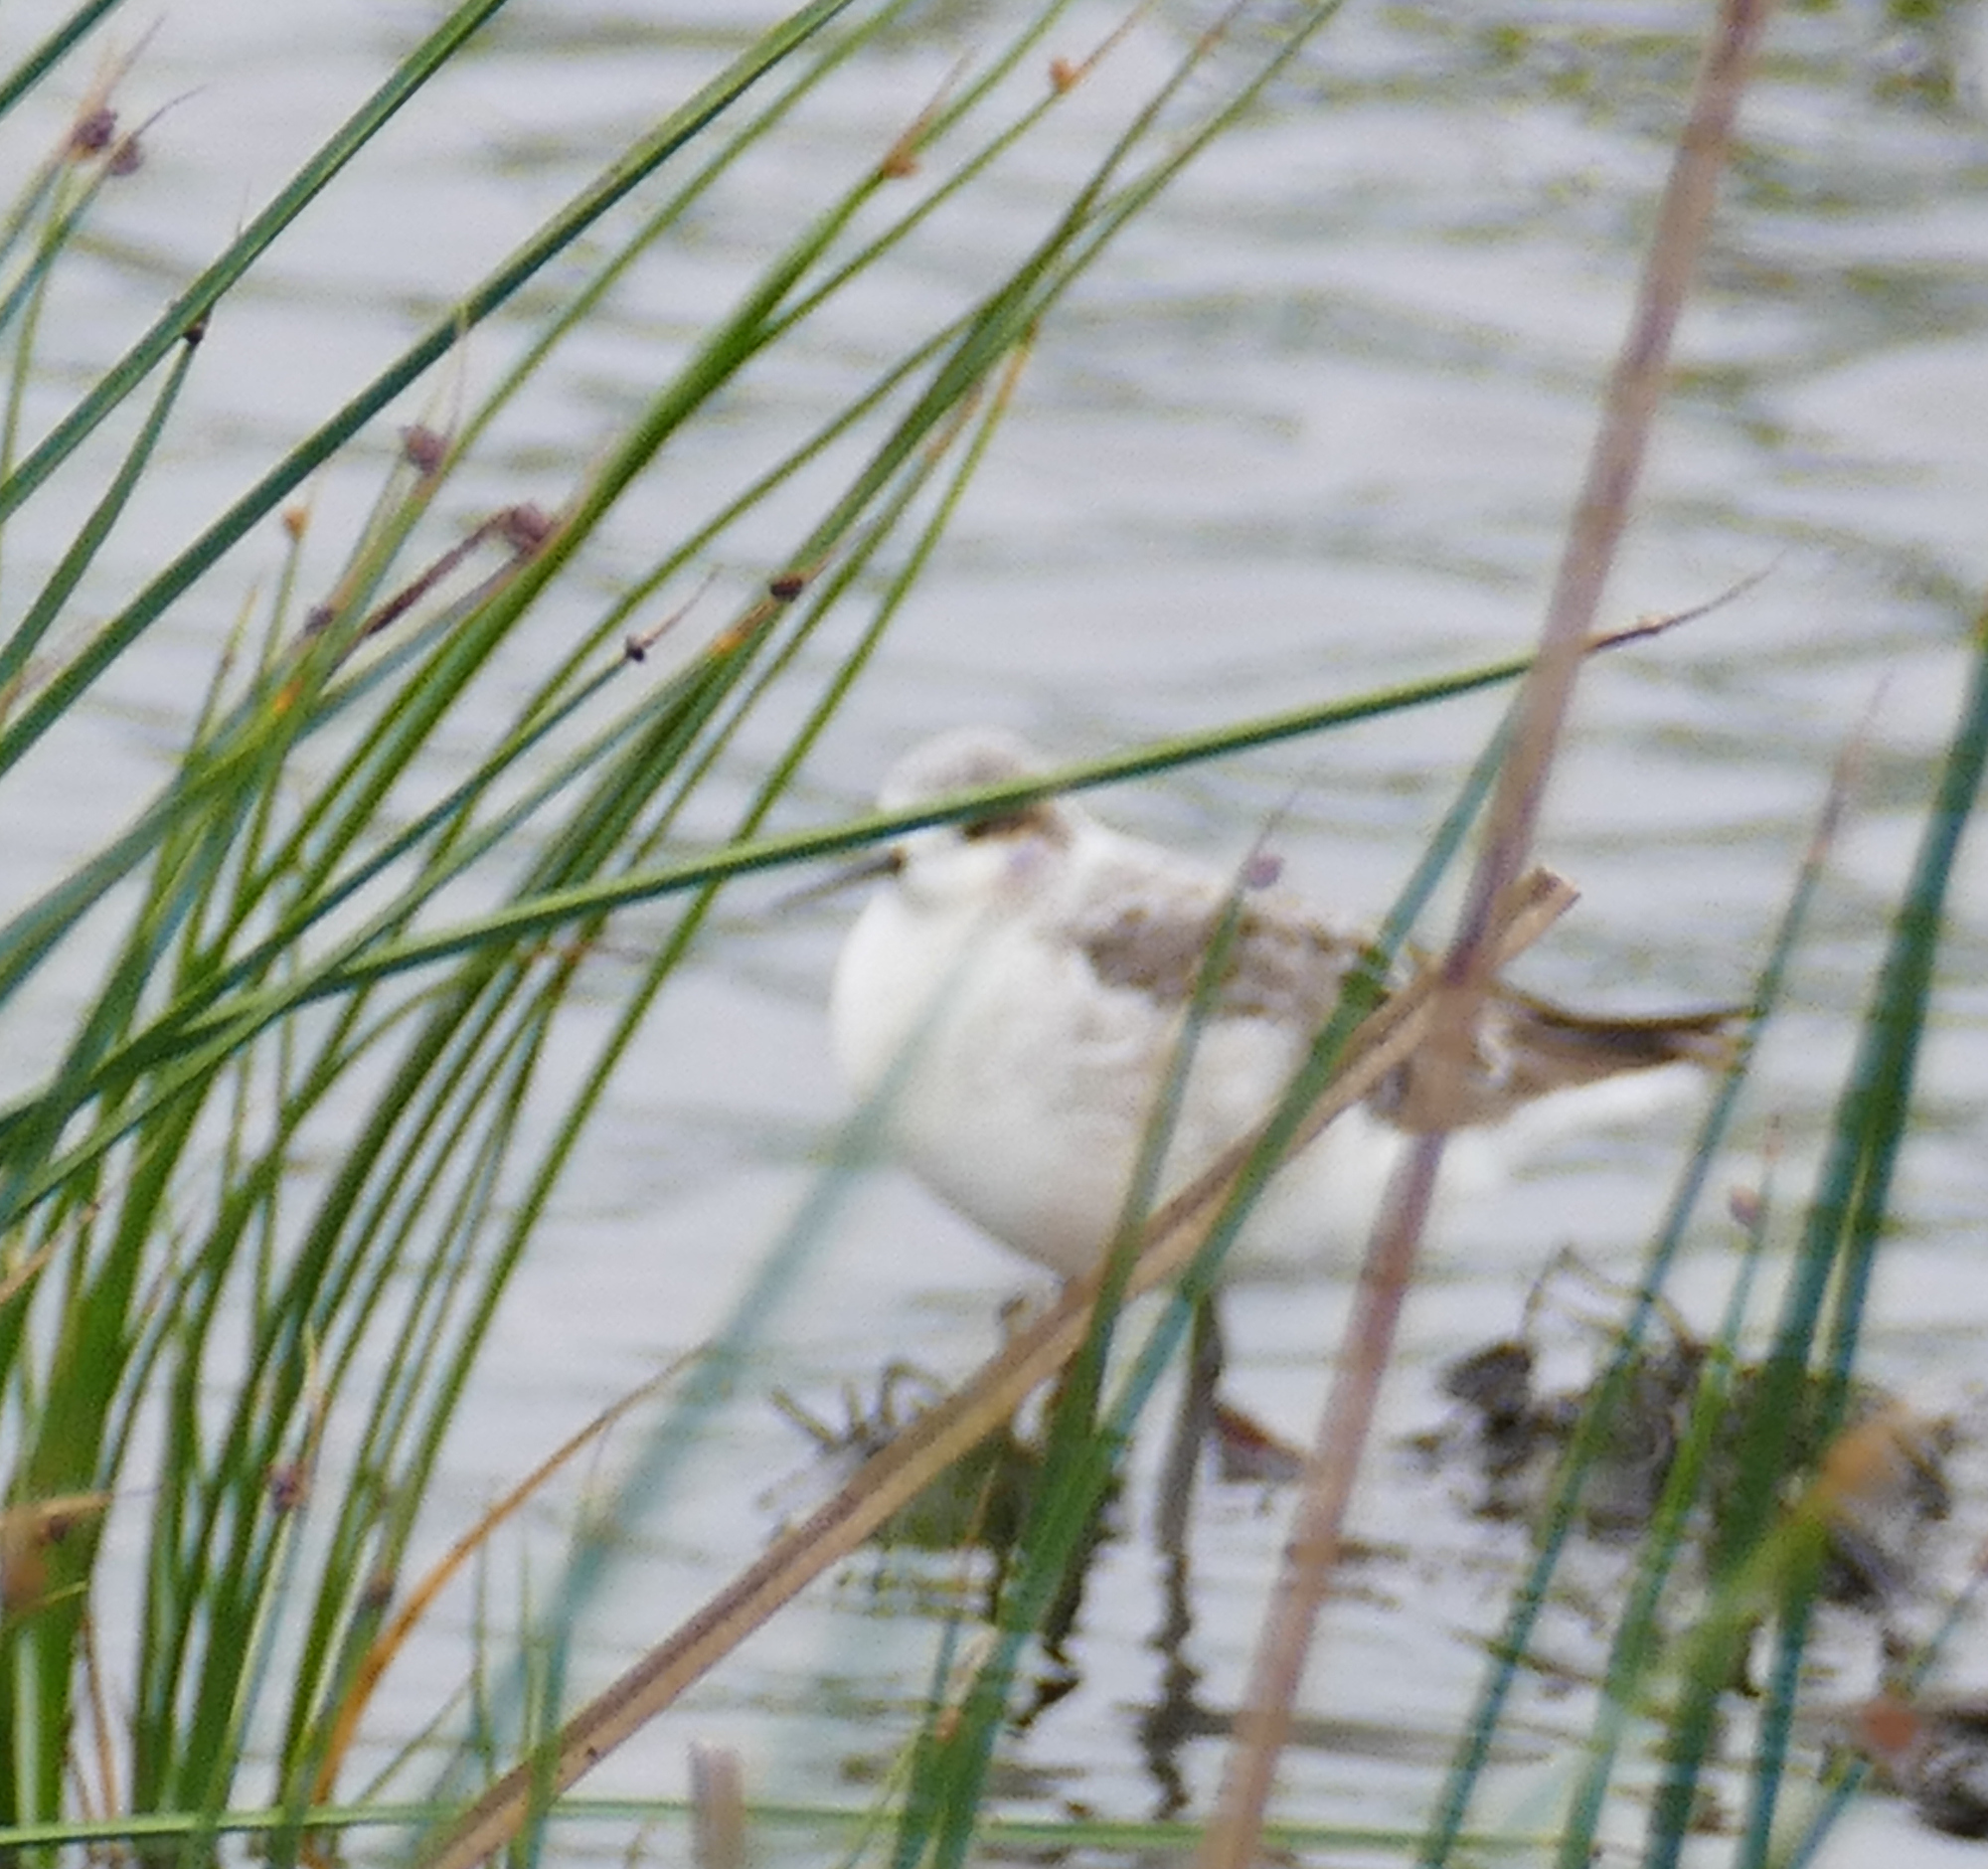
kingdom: Animalia
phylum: Chordata
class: Aves
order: Charadriiformes
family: Scolopacidae
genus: Phalaropus
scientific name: Phalaropus tricolor
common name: Wilson's phalarope
